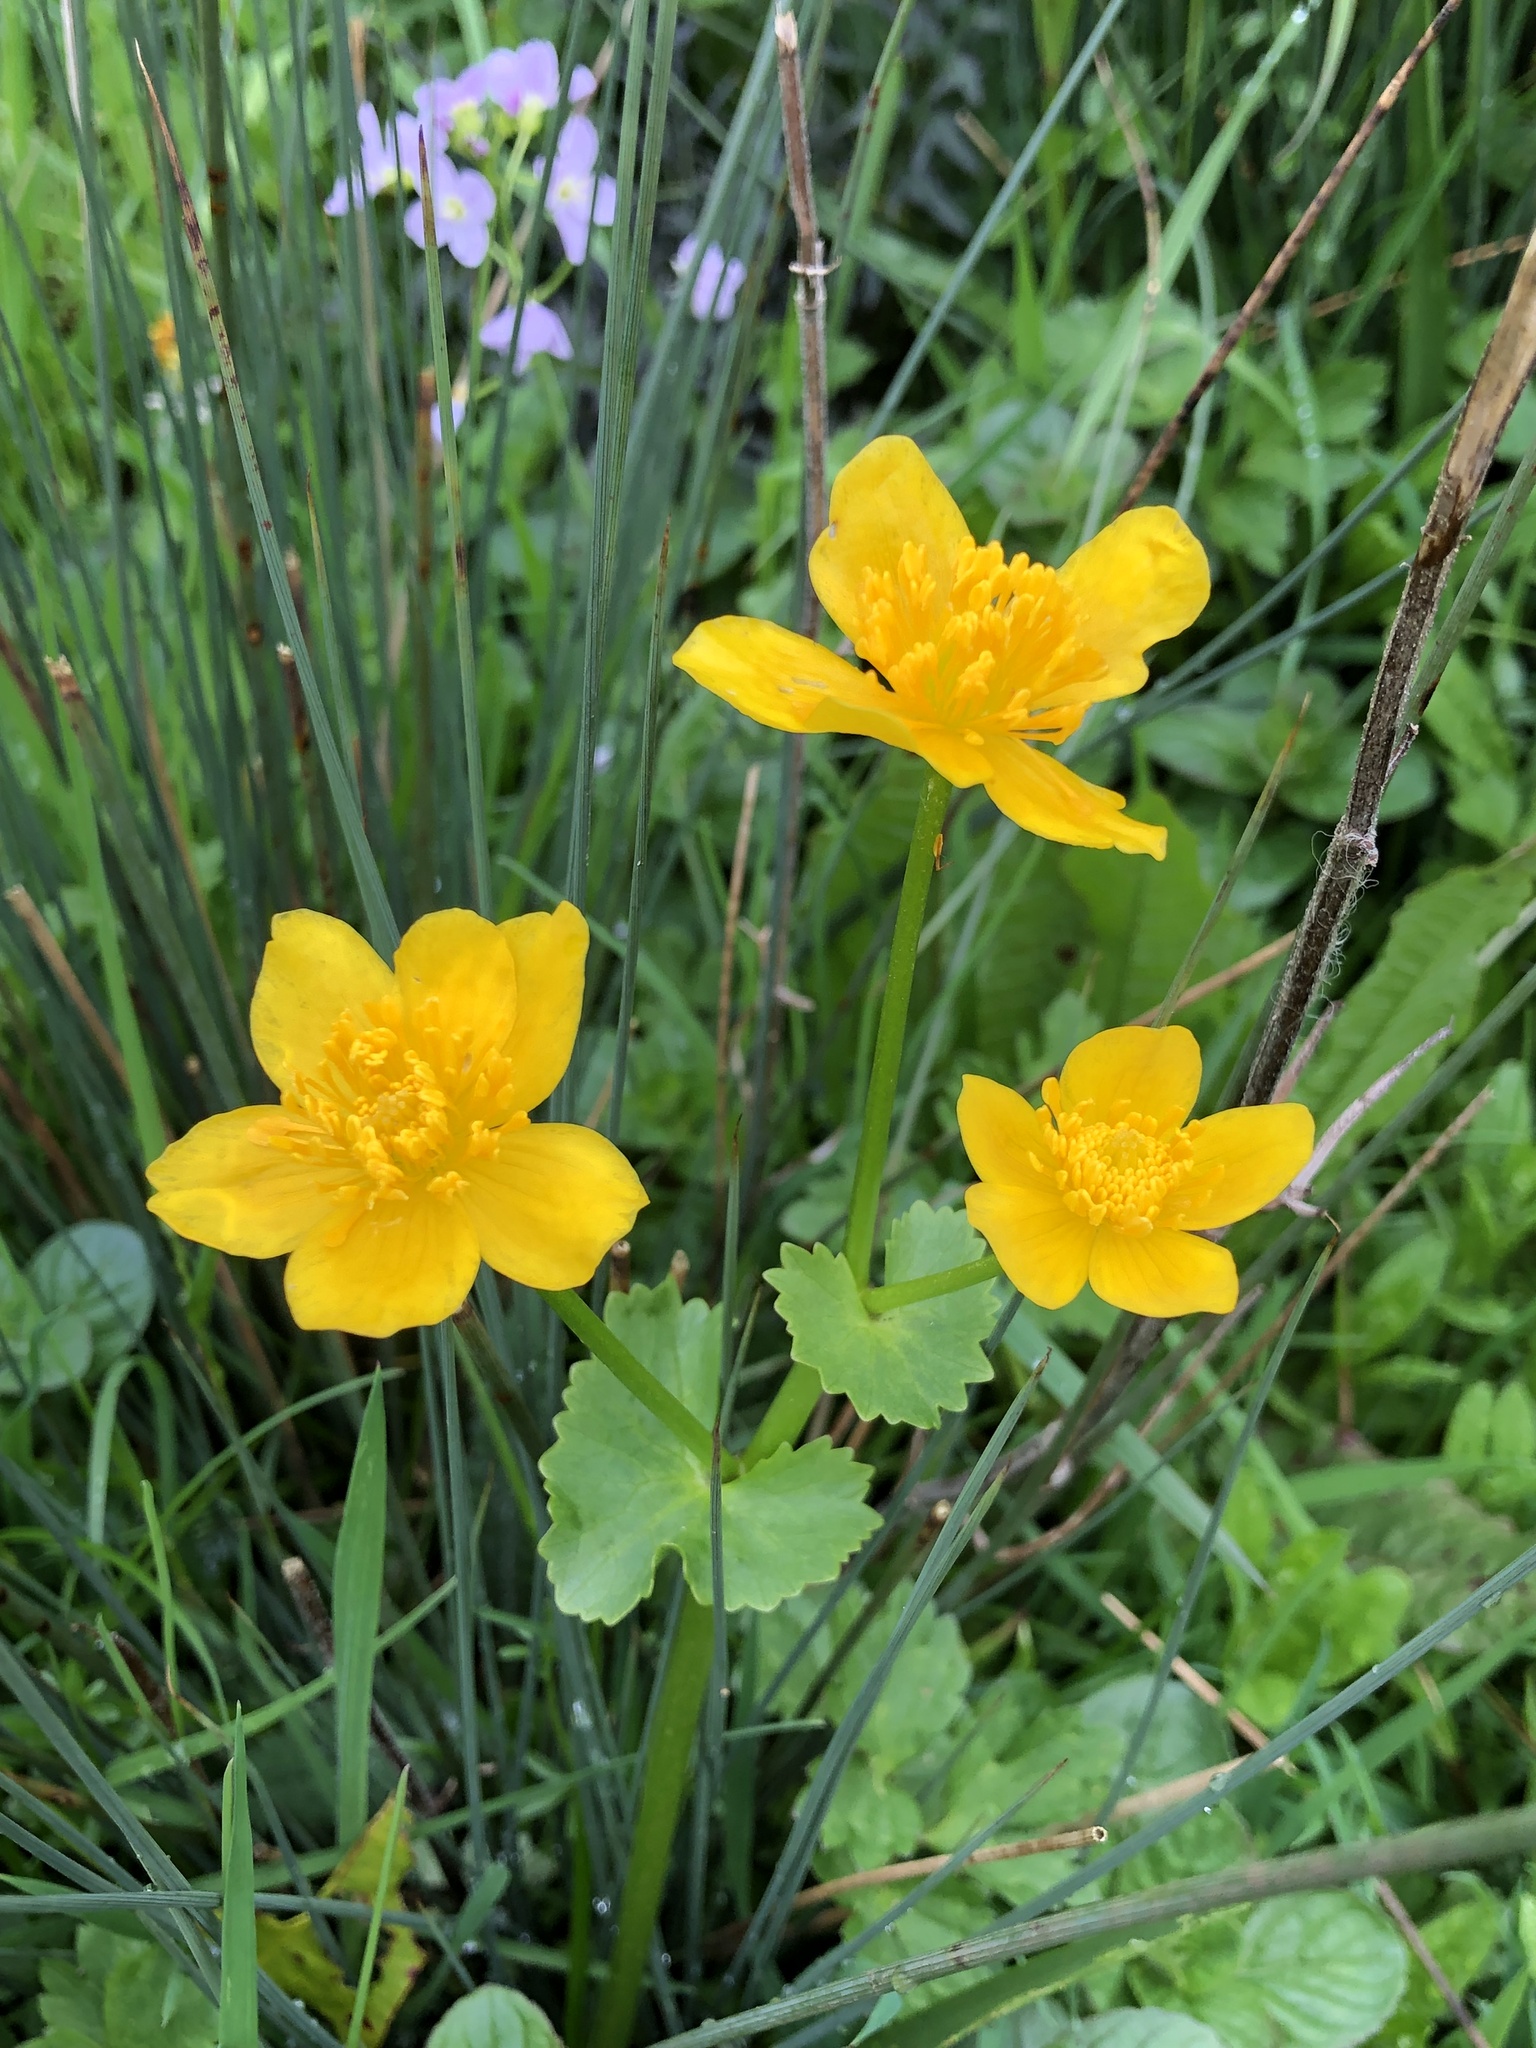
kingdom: Plantae
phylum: Tracheophyta
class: Magnoliopsida
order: Ranunculales
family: Ranunculaceae
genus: Caltha
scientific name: Caltha palustris
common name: Marsh marigold
